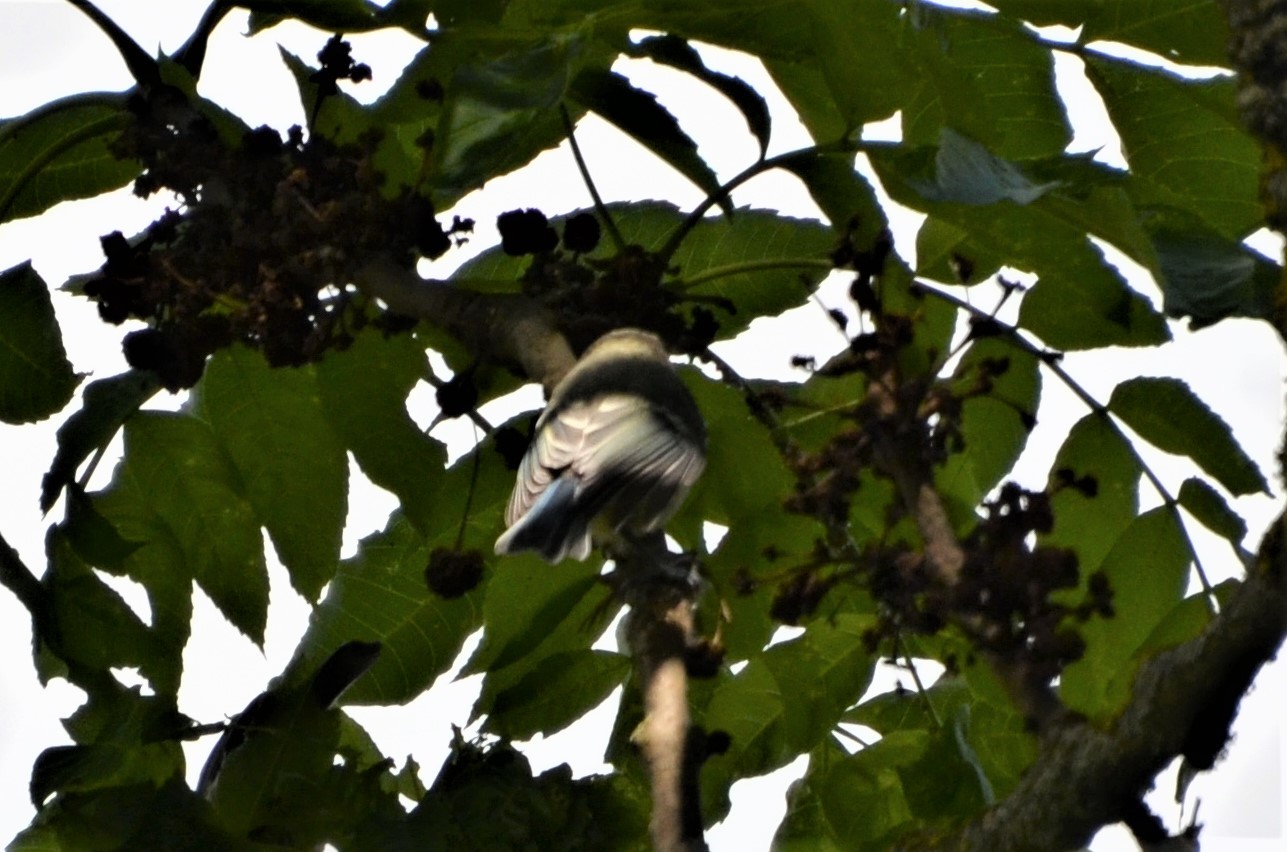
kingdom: Animalia
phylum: Chordata
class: Aves
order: Passeriformes
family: Paridae
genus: Cyanistes
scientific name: Cyanistes caeruleus
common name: Eurasian blue tit
